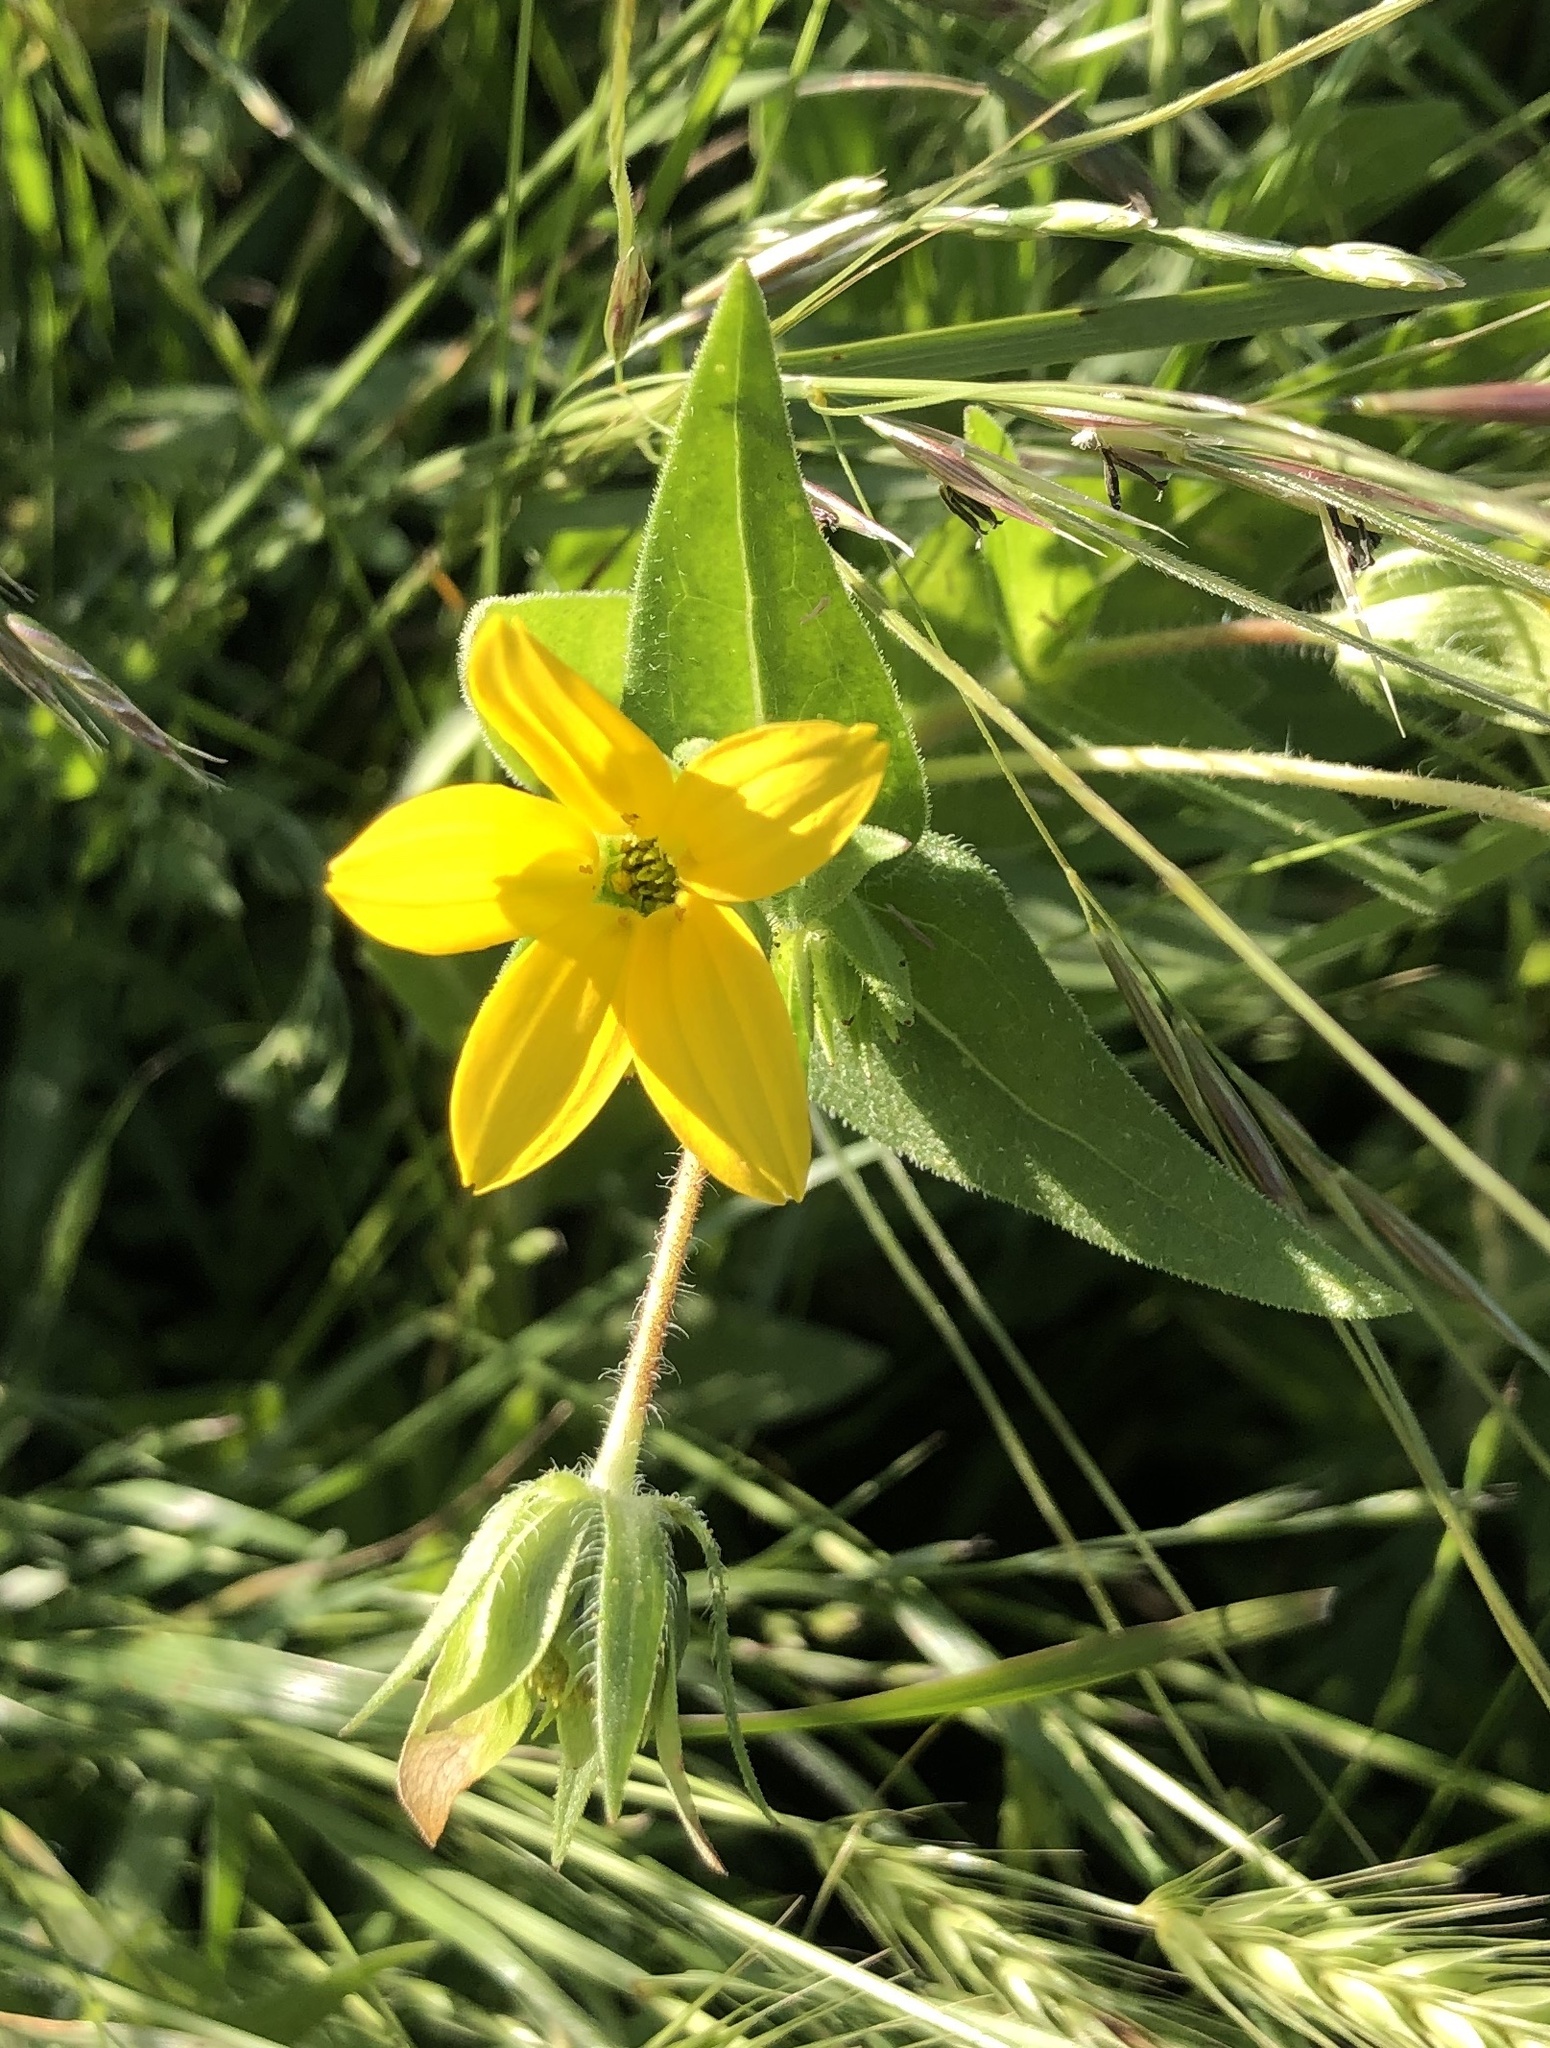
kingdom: Plantae
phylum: Tracheophyta
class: Magnoliopsida
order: Asterales
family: Asteraceae
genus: Lindheimera
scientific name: Lindheimera texana
